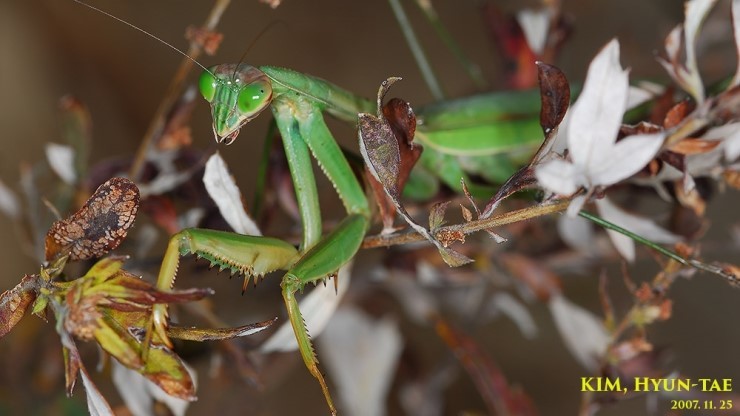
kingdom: Animalia
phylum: Arthropoda
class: Insecta
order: Mantodea
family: Mantidae
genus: Tenodera
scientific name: Tenodera sinensis
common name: Chinese mantis
